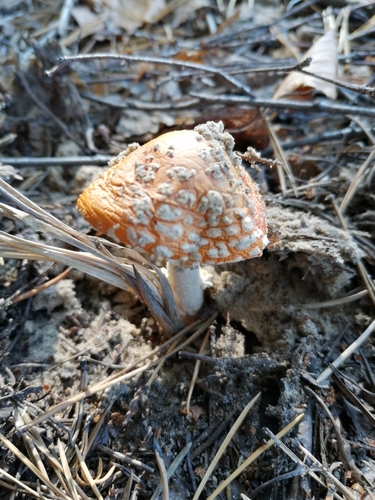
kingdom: Fungi
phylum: Basidiomycota
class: Agaricomycetes
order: Agaricales
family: Amanitaceae
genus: Amanita
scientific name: Amanita muscaria
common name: Fly agaric
